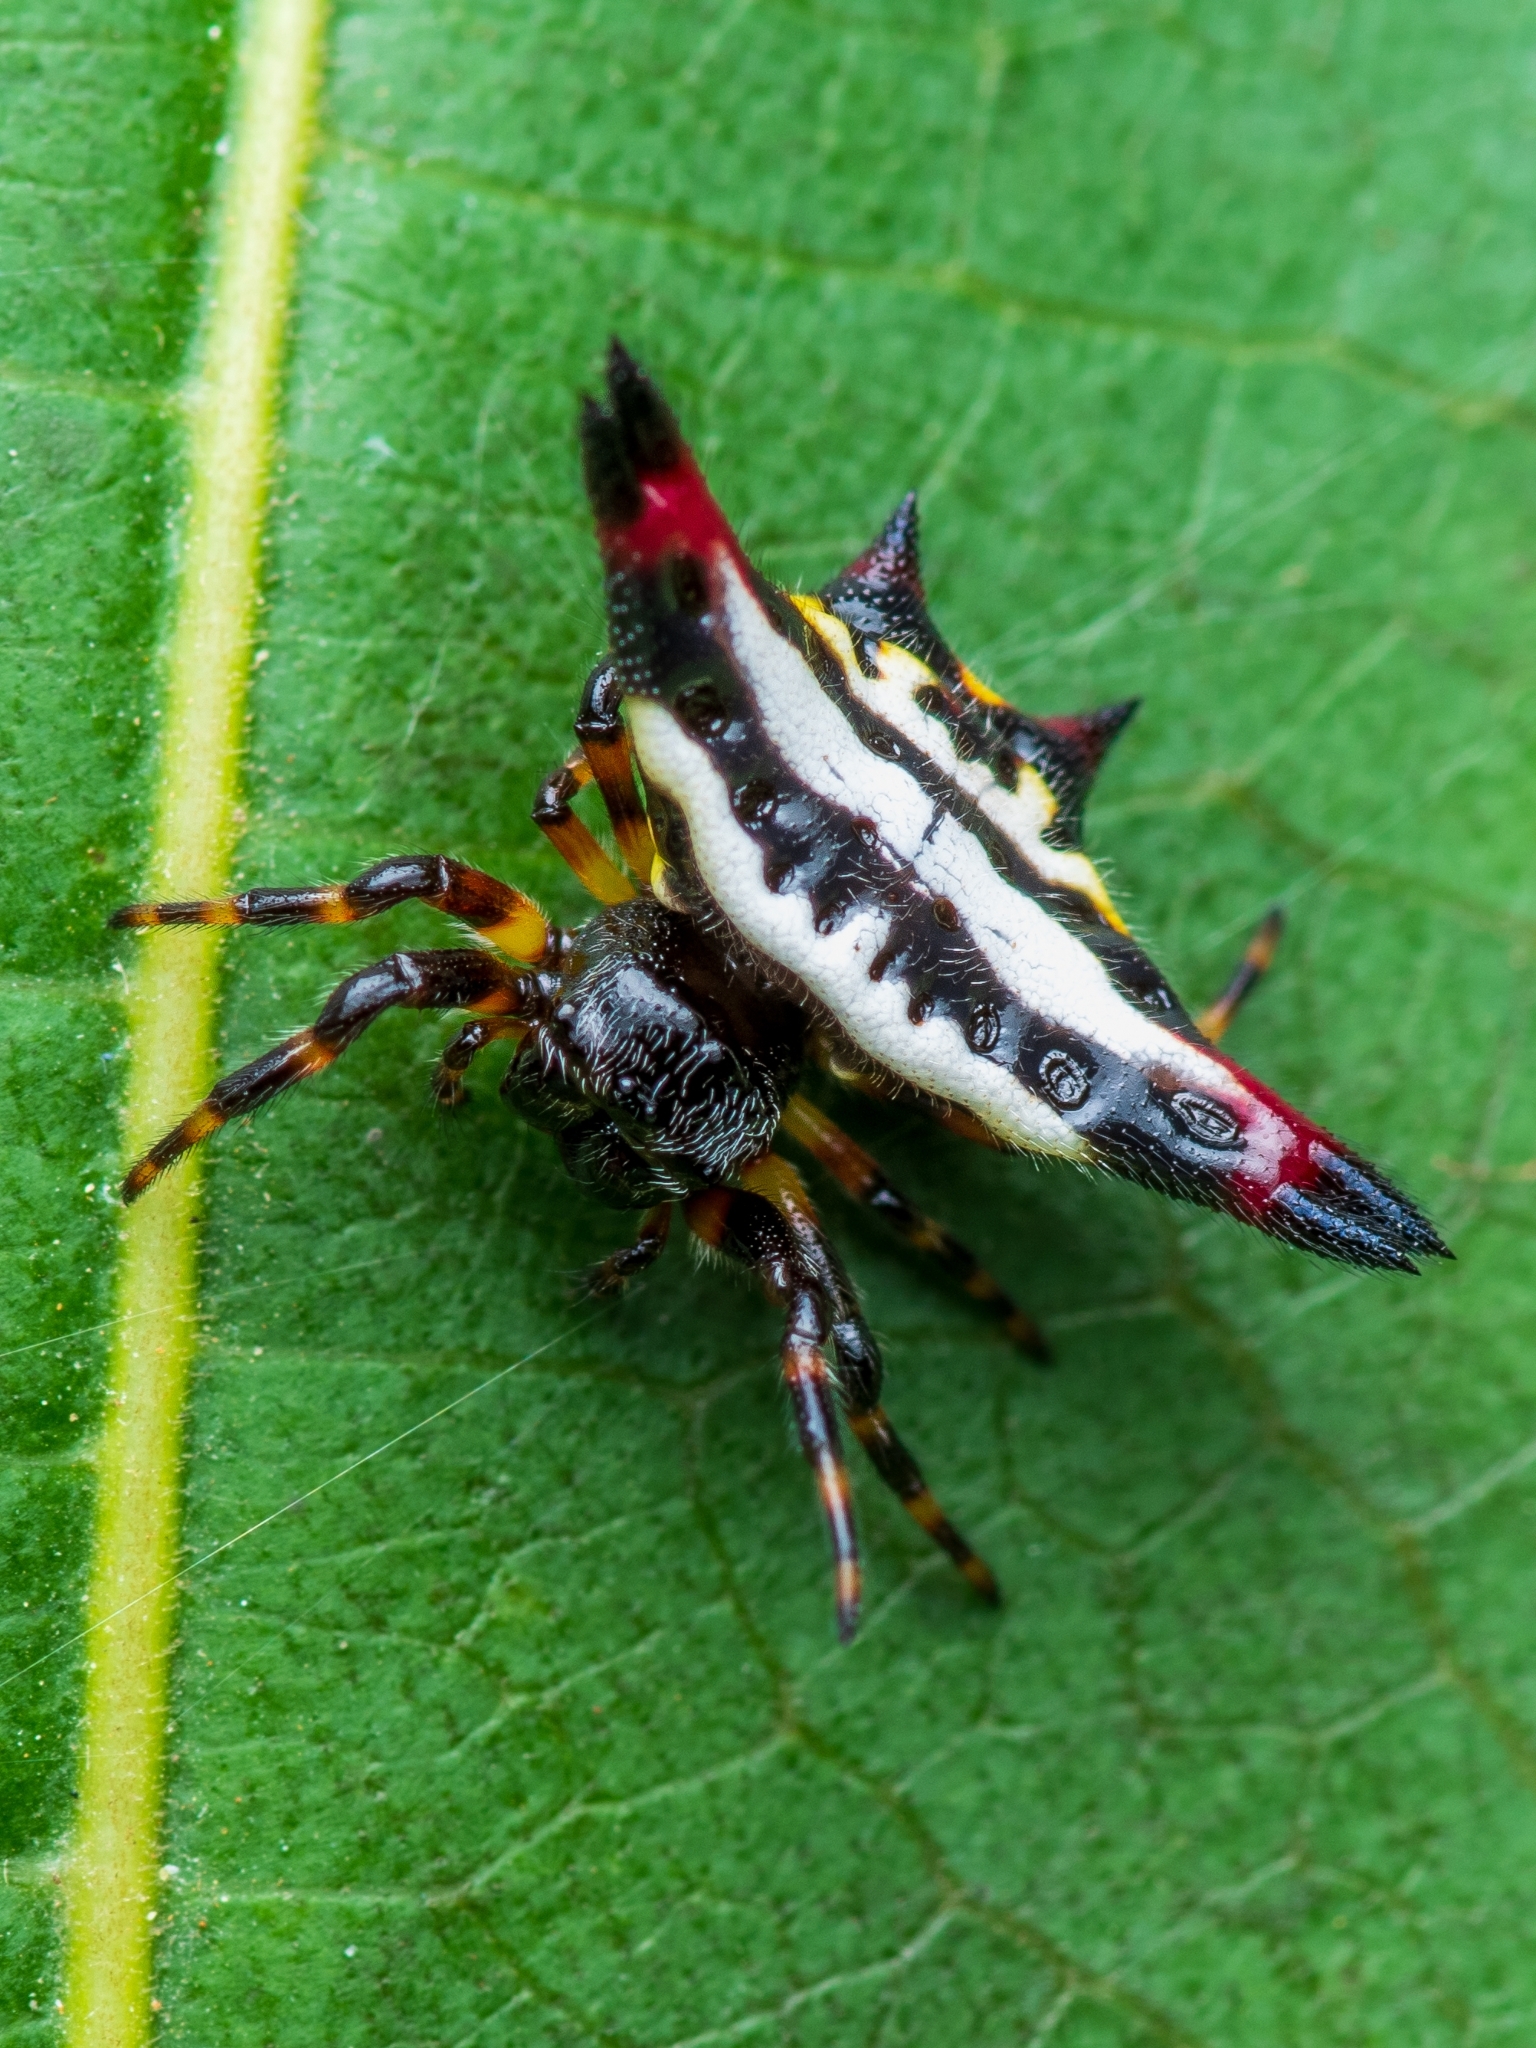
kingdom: Animalia
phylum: Arthropoda
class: Arachnida
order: Araneae
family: Araneidae
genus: Gasteracantha
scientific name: Gasteracantha geminata
